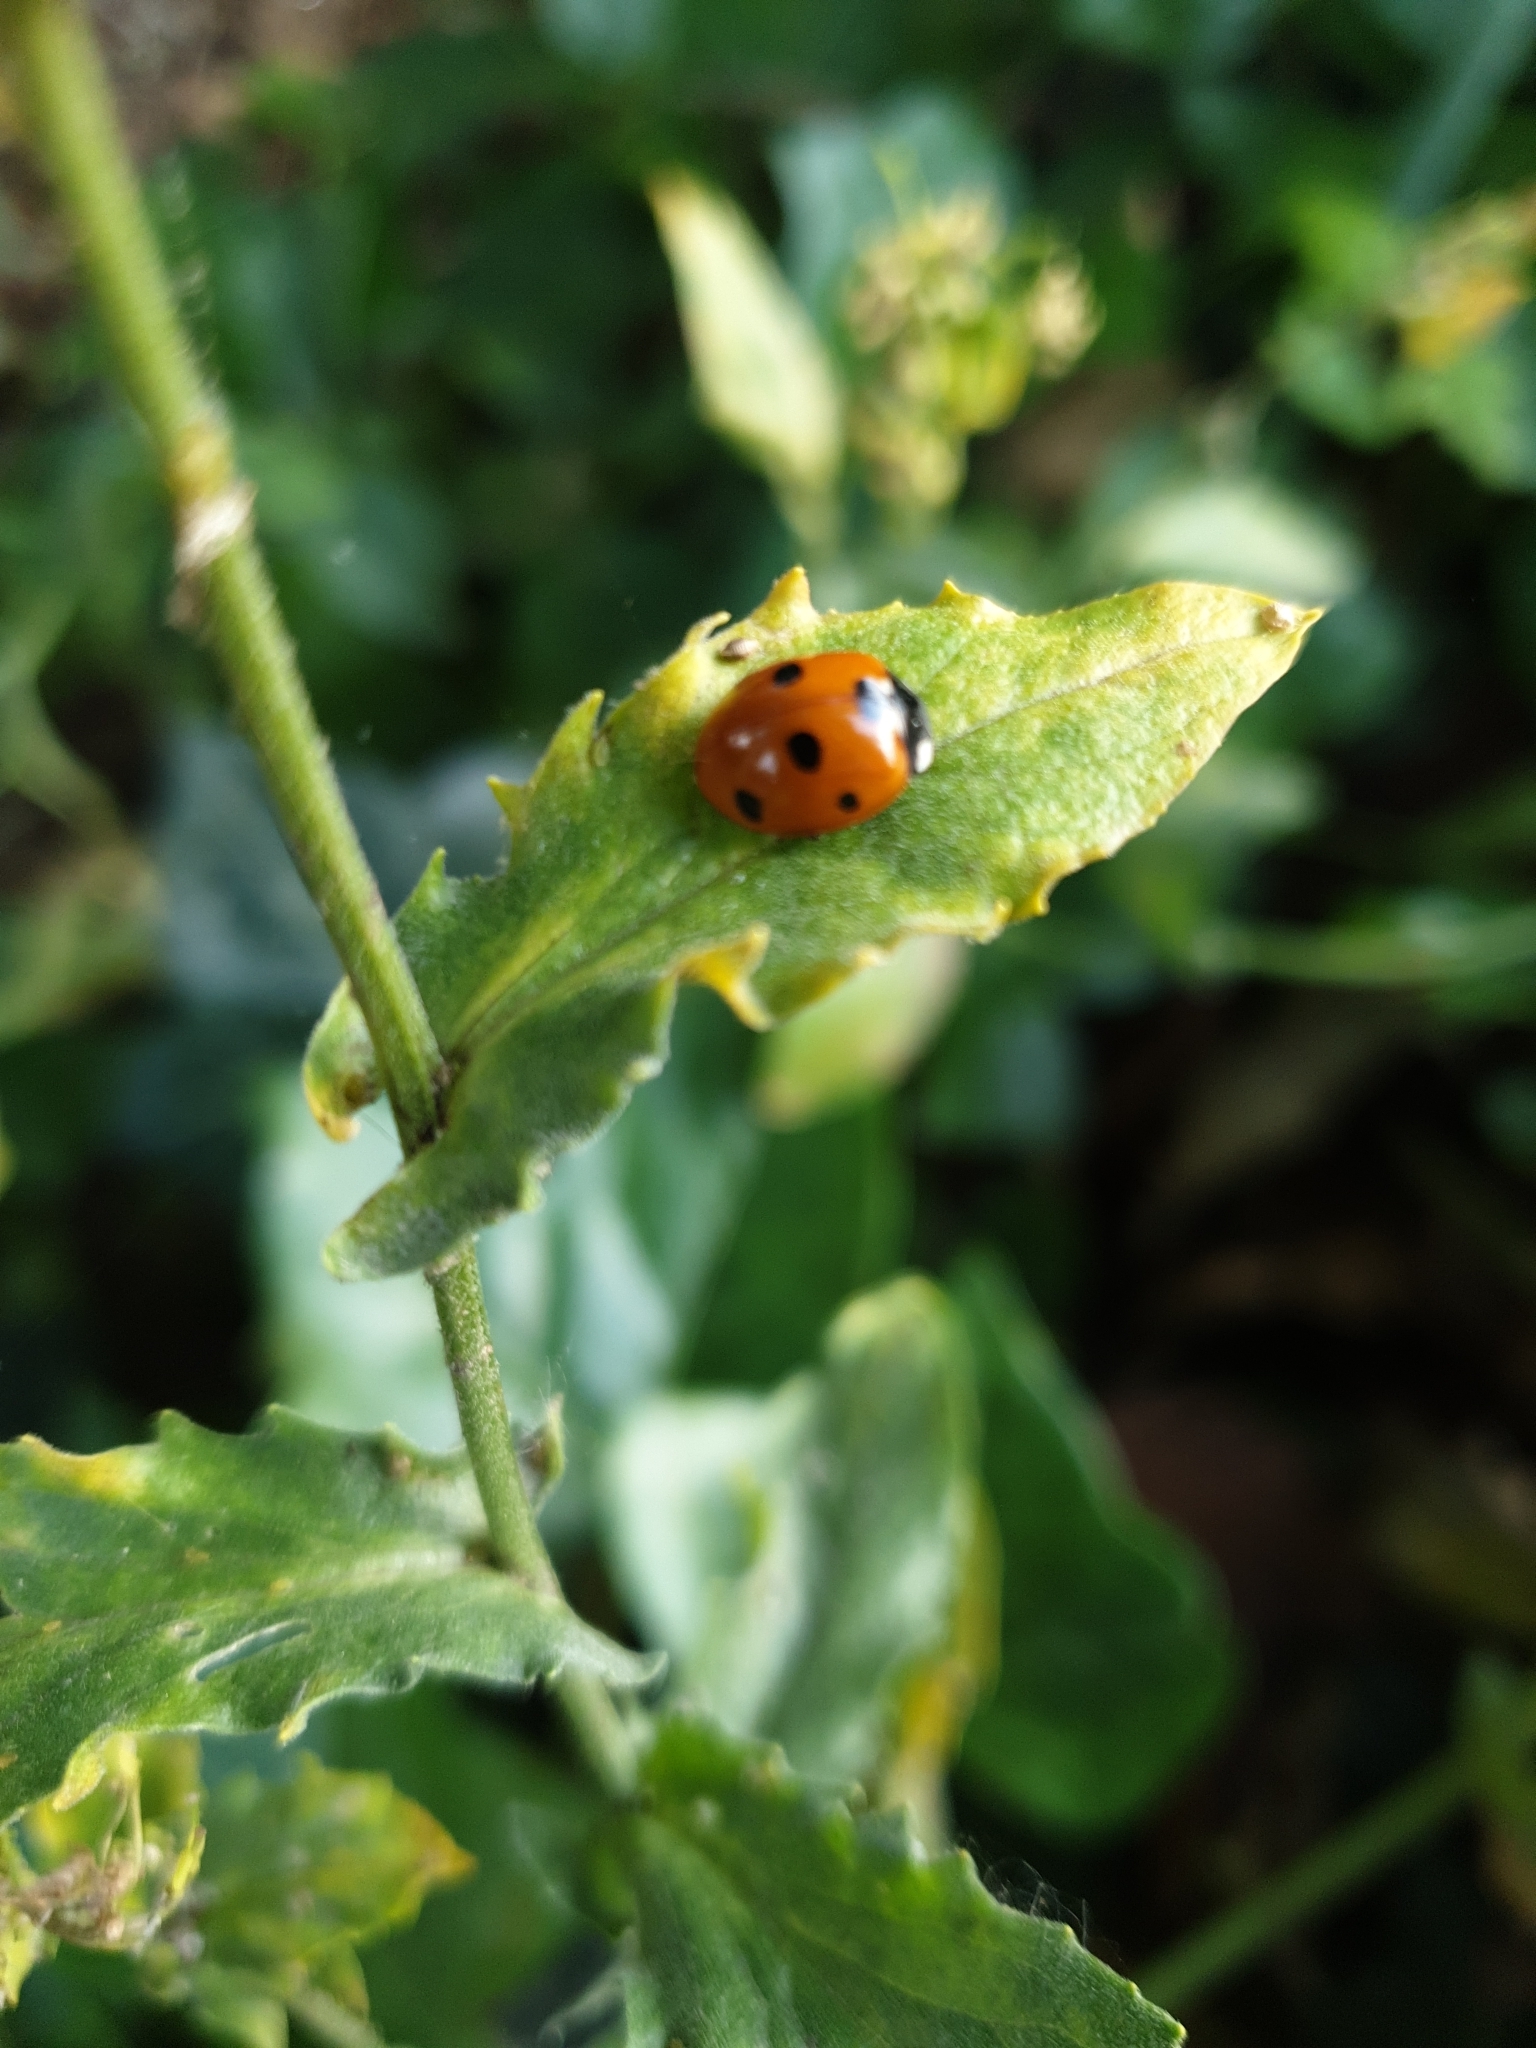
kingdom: Animalia
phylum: Arthropoda
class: Insecta
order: Coleoptera
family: Coccinellidae
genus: Coccinella
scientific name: Coccinella septempunctata
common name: Sevenspotted lady beetle
